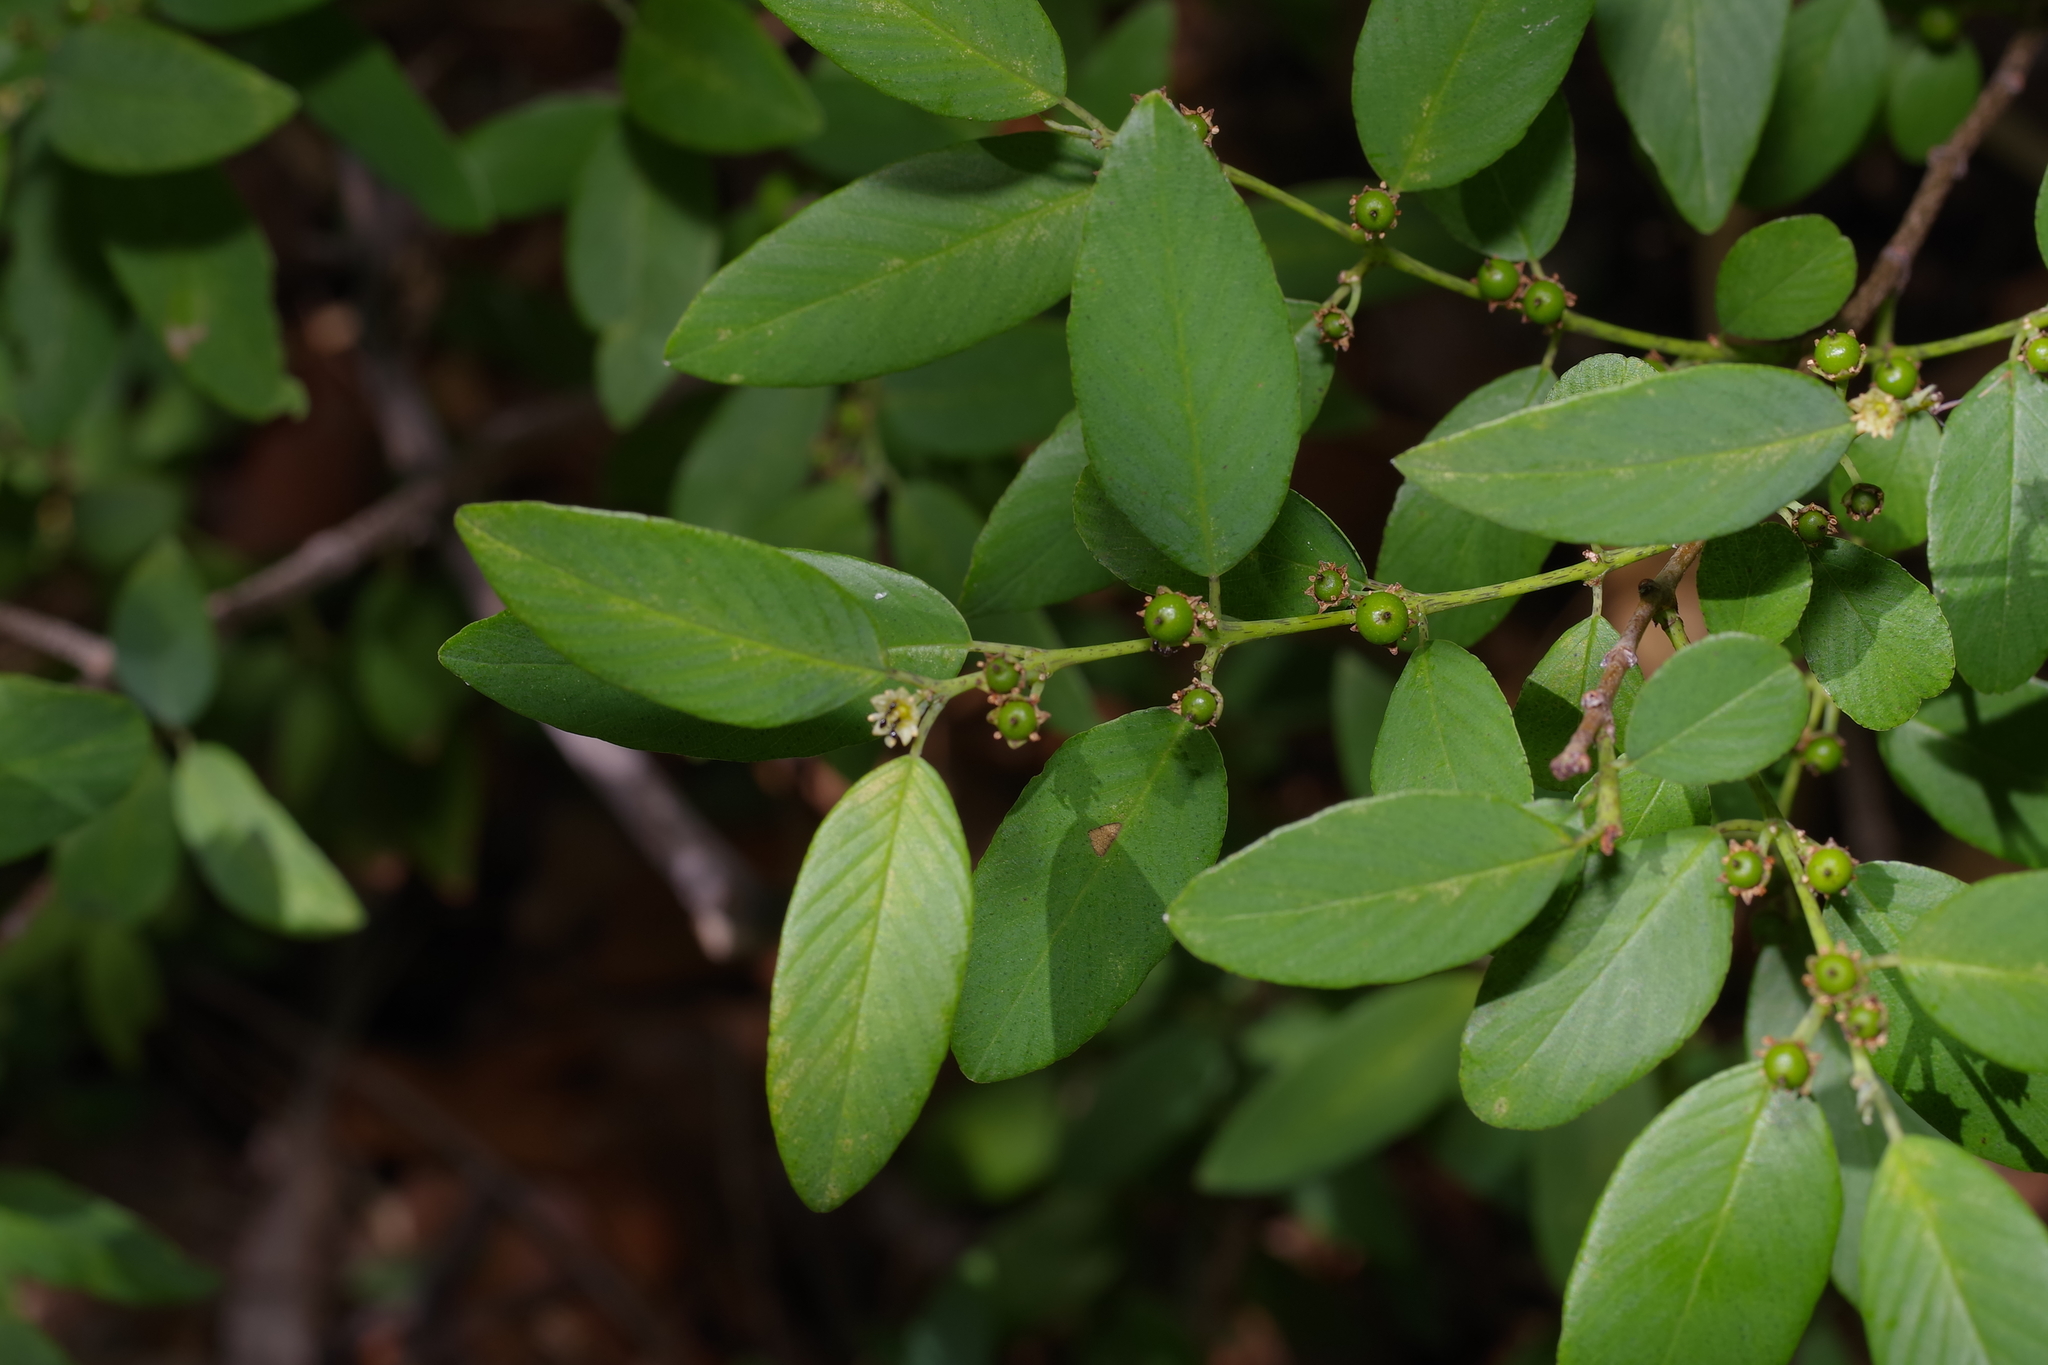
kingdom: Plantae
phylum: Tracheophyta
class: Magnoliopsida
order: Rosales
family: Rhamnaceae
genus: Karwinskia
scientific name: Karwinskia humboldtiana
